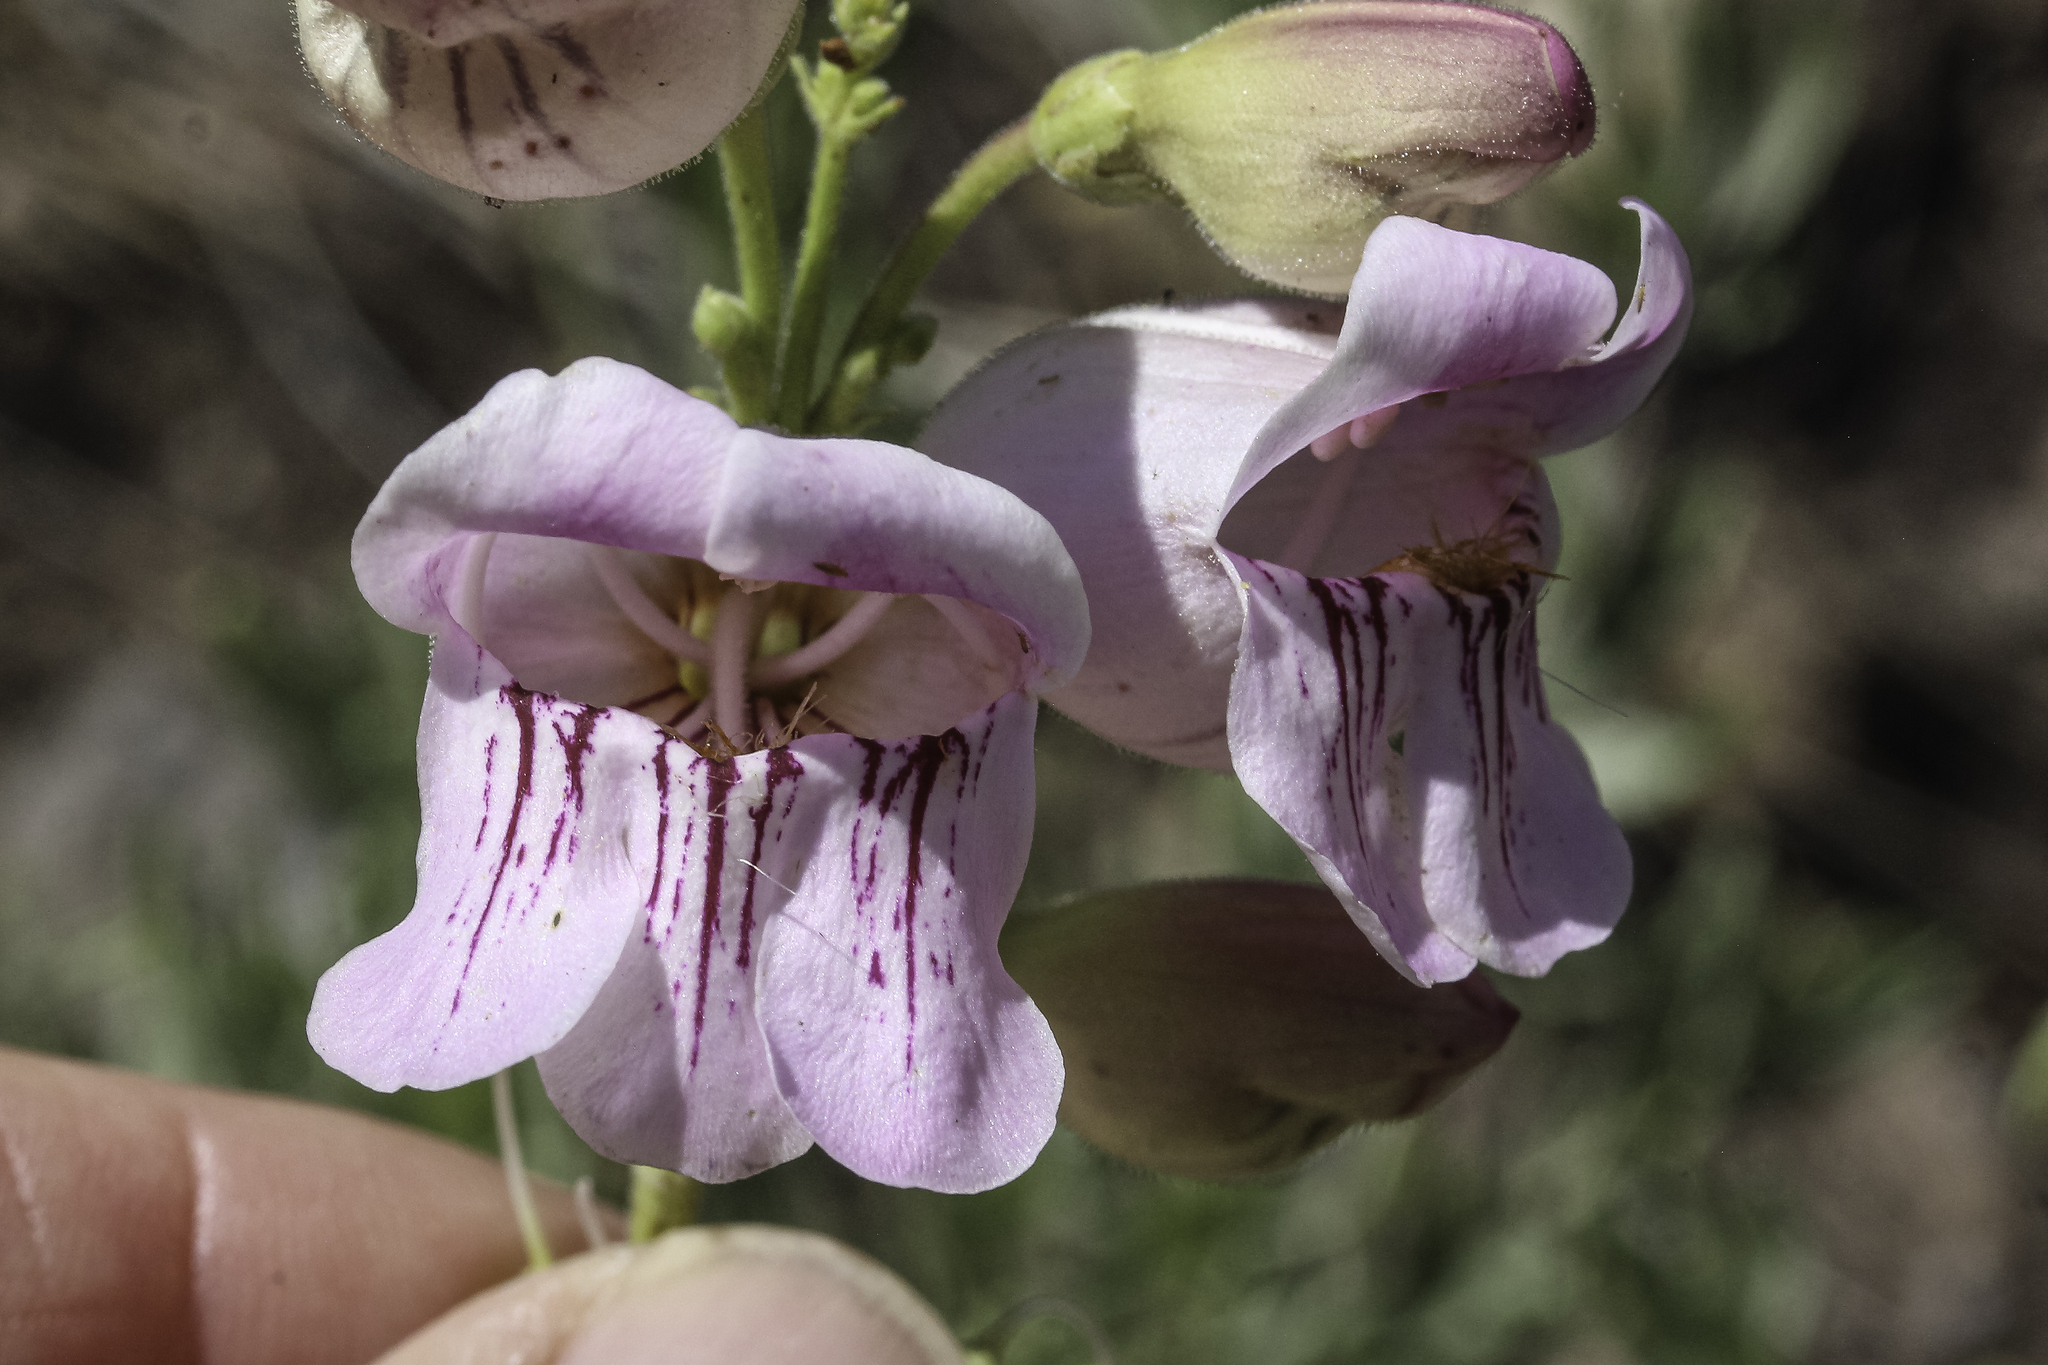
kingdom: Plantae
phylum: Tracheophyta
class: Magnoliopsida
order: Lamiales
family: Plantaginaceae
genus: Penstemon
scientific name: Penstemon palmeri
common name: Palmer penstemon
